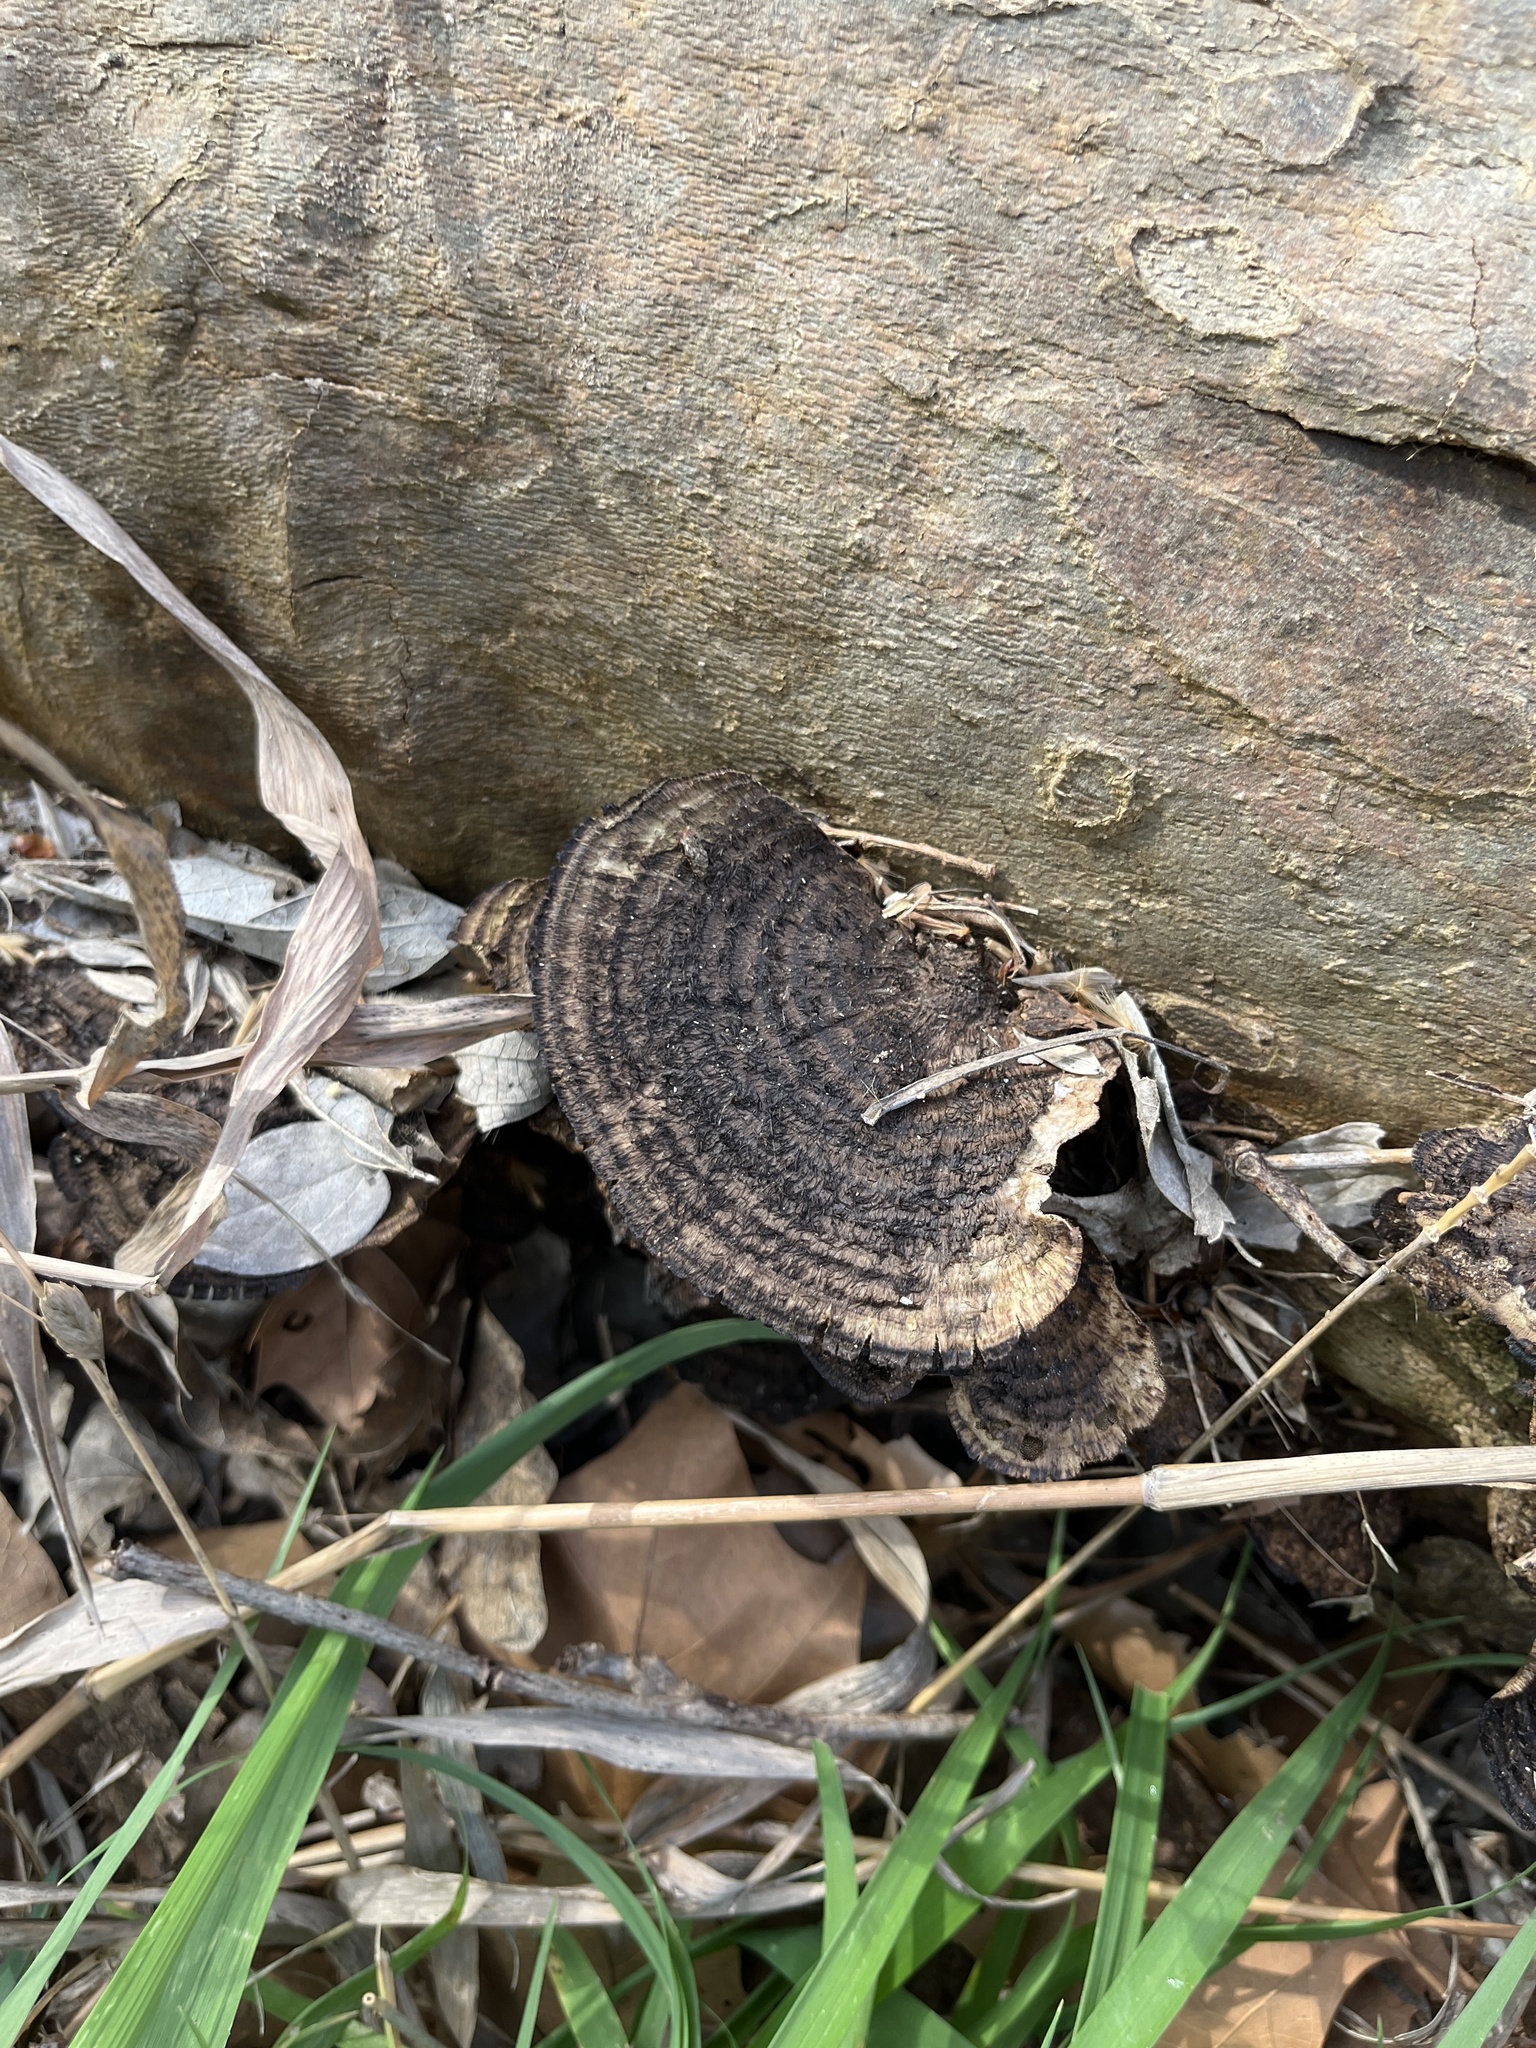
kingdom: Fungi
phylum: Basidiomycota
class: Agaricomycetes
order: Polyporales
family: Cerrenaceae
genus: Cerrena
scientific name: Cerrena hydnoides
